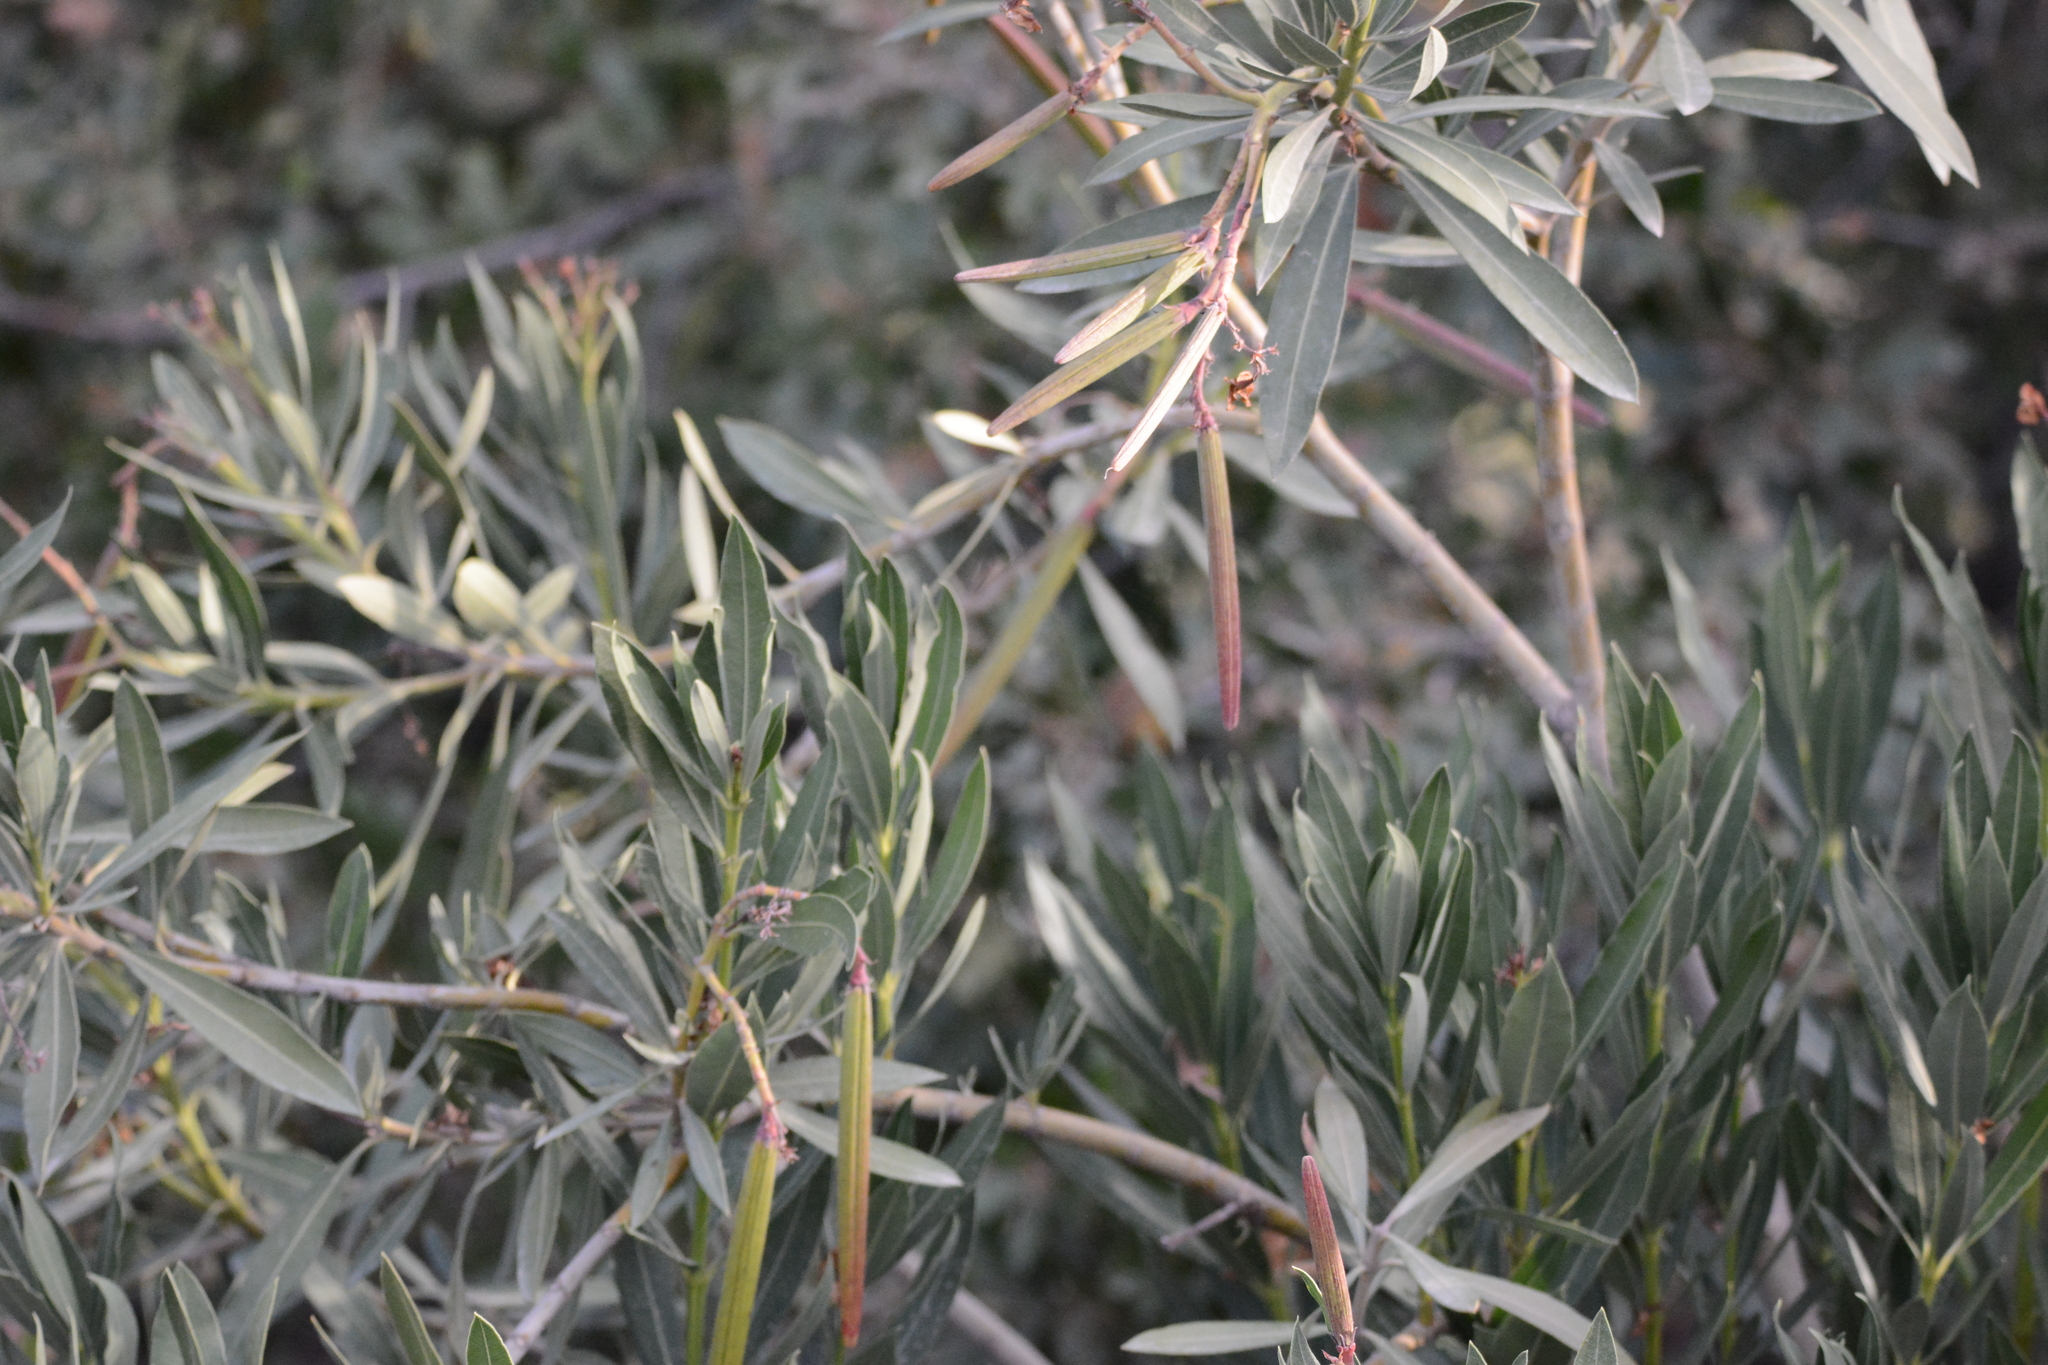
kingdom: Plantae
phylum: Tracheophyta
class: Magnoliopsida
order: Gentianales
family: Apocynaceae
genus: Nerium
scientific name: Nerium oleander
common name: Oleander
